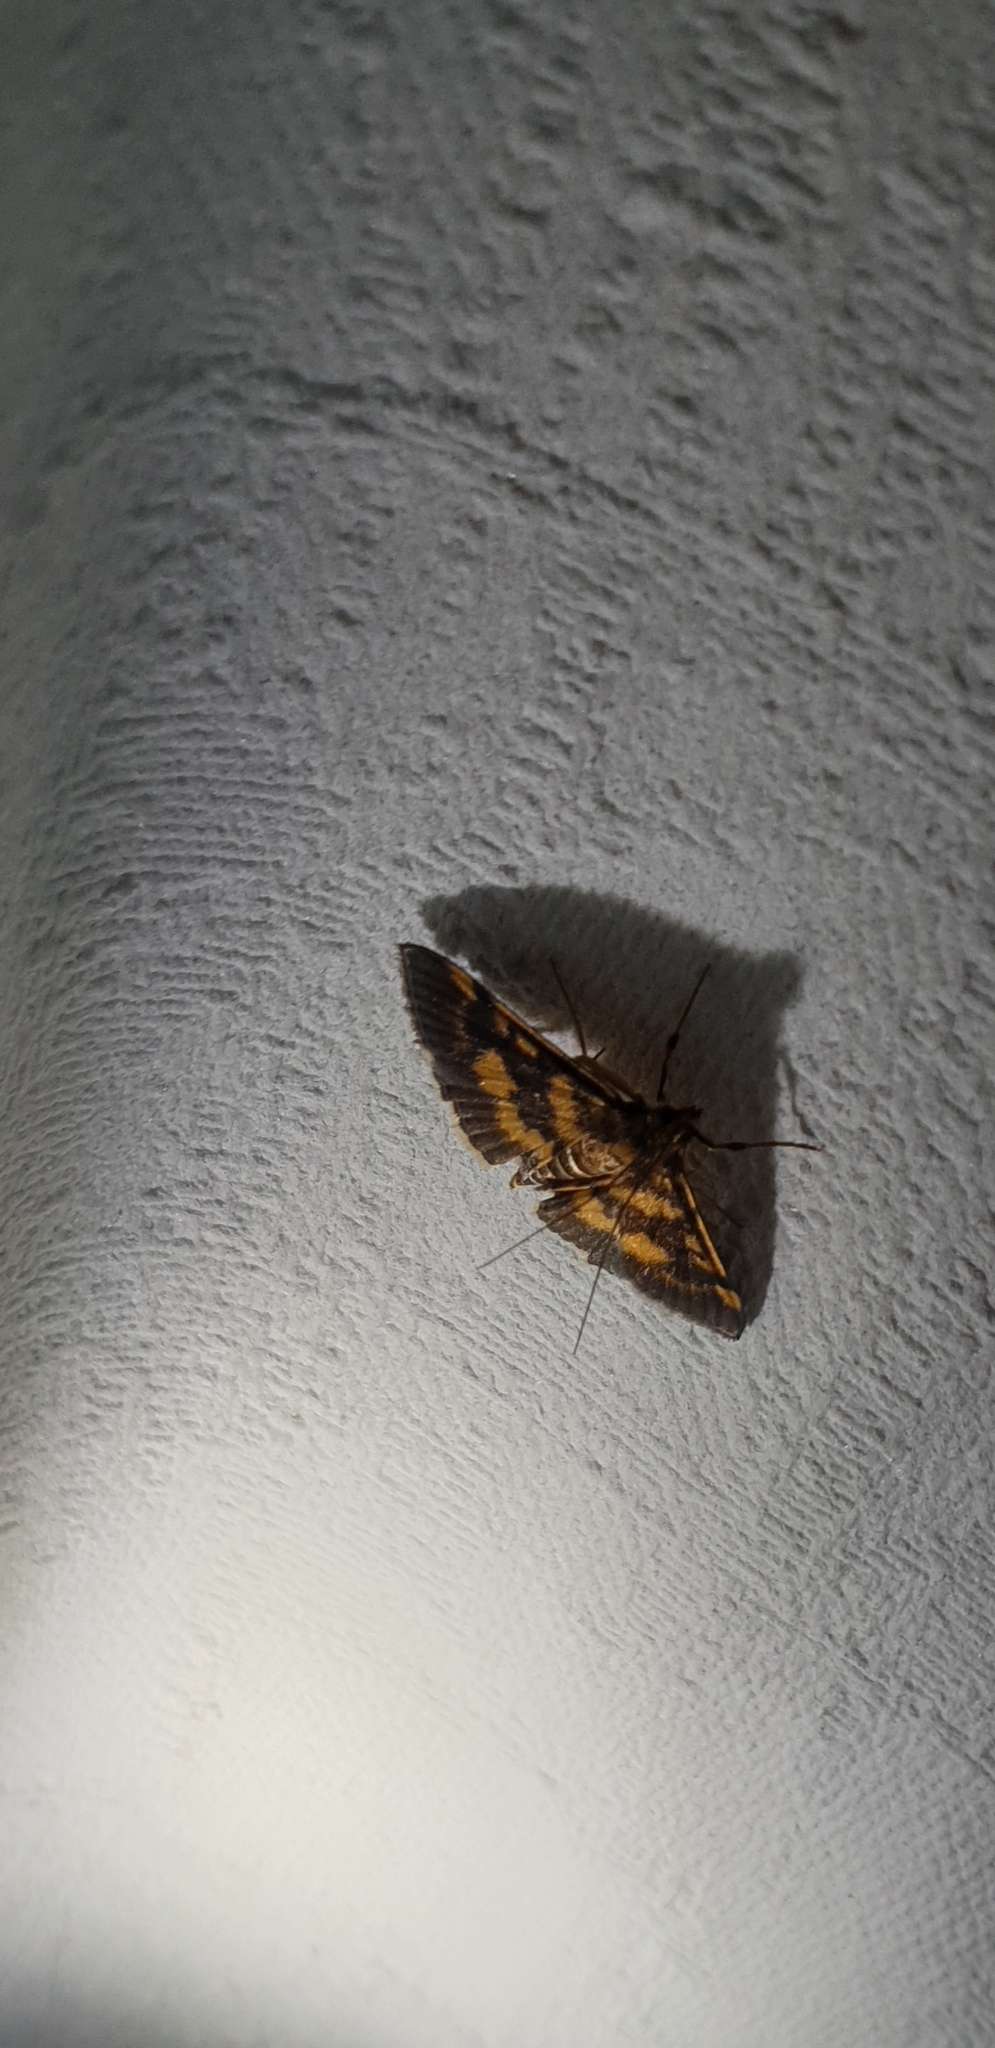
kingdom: Animalia
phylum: Arthropoda
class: Insecta
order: Lepidoptera
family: Crambidae
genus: Omiodes
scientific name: Omiodes diemenalis
